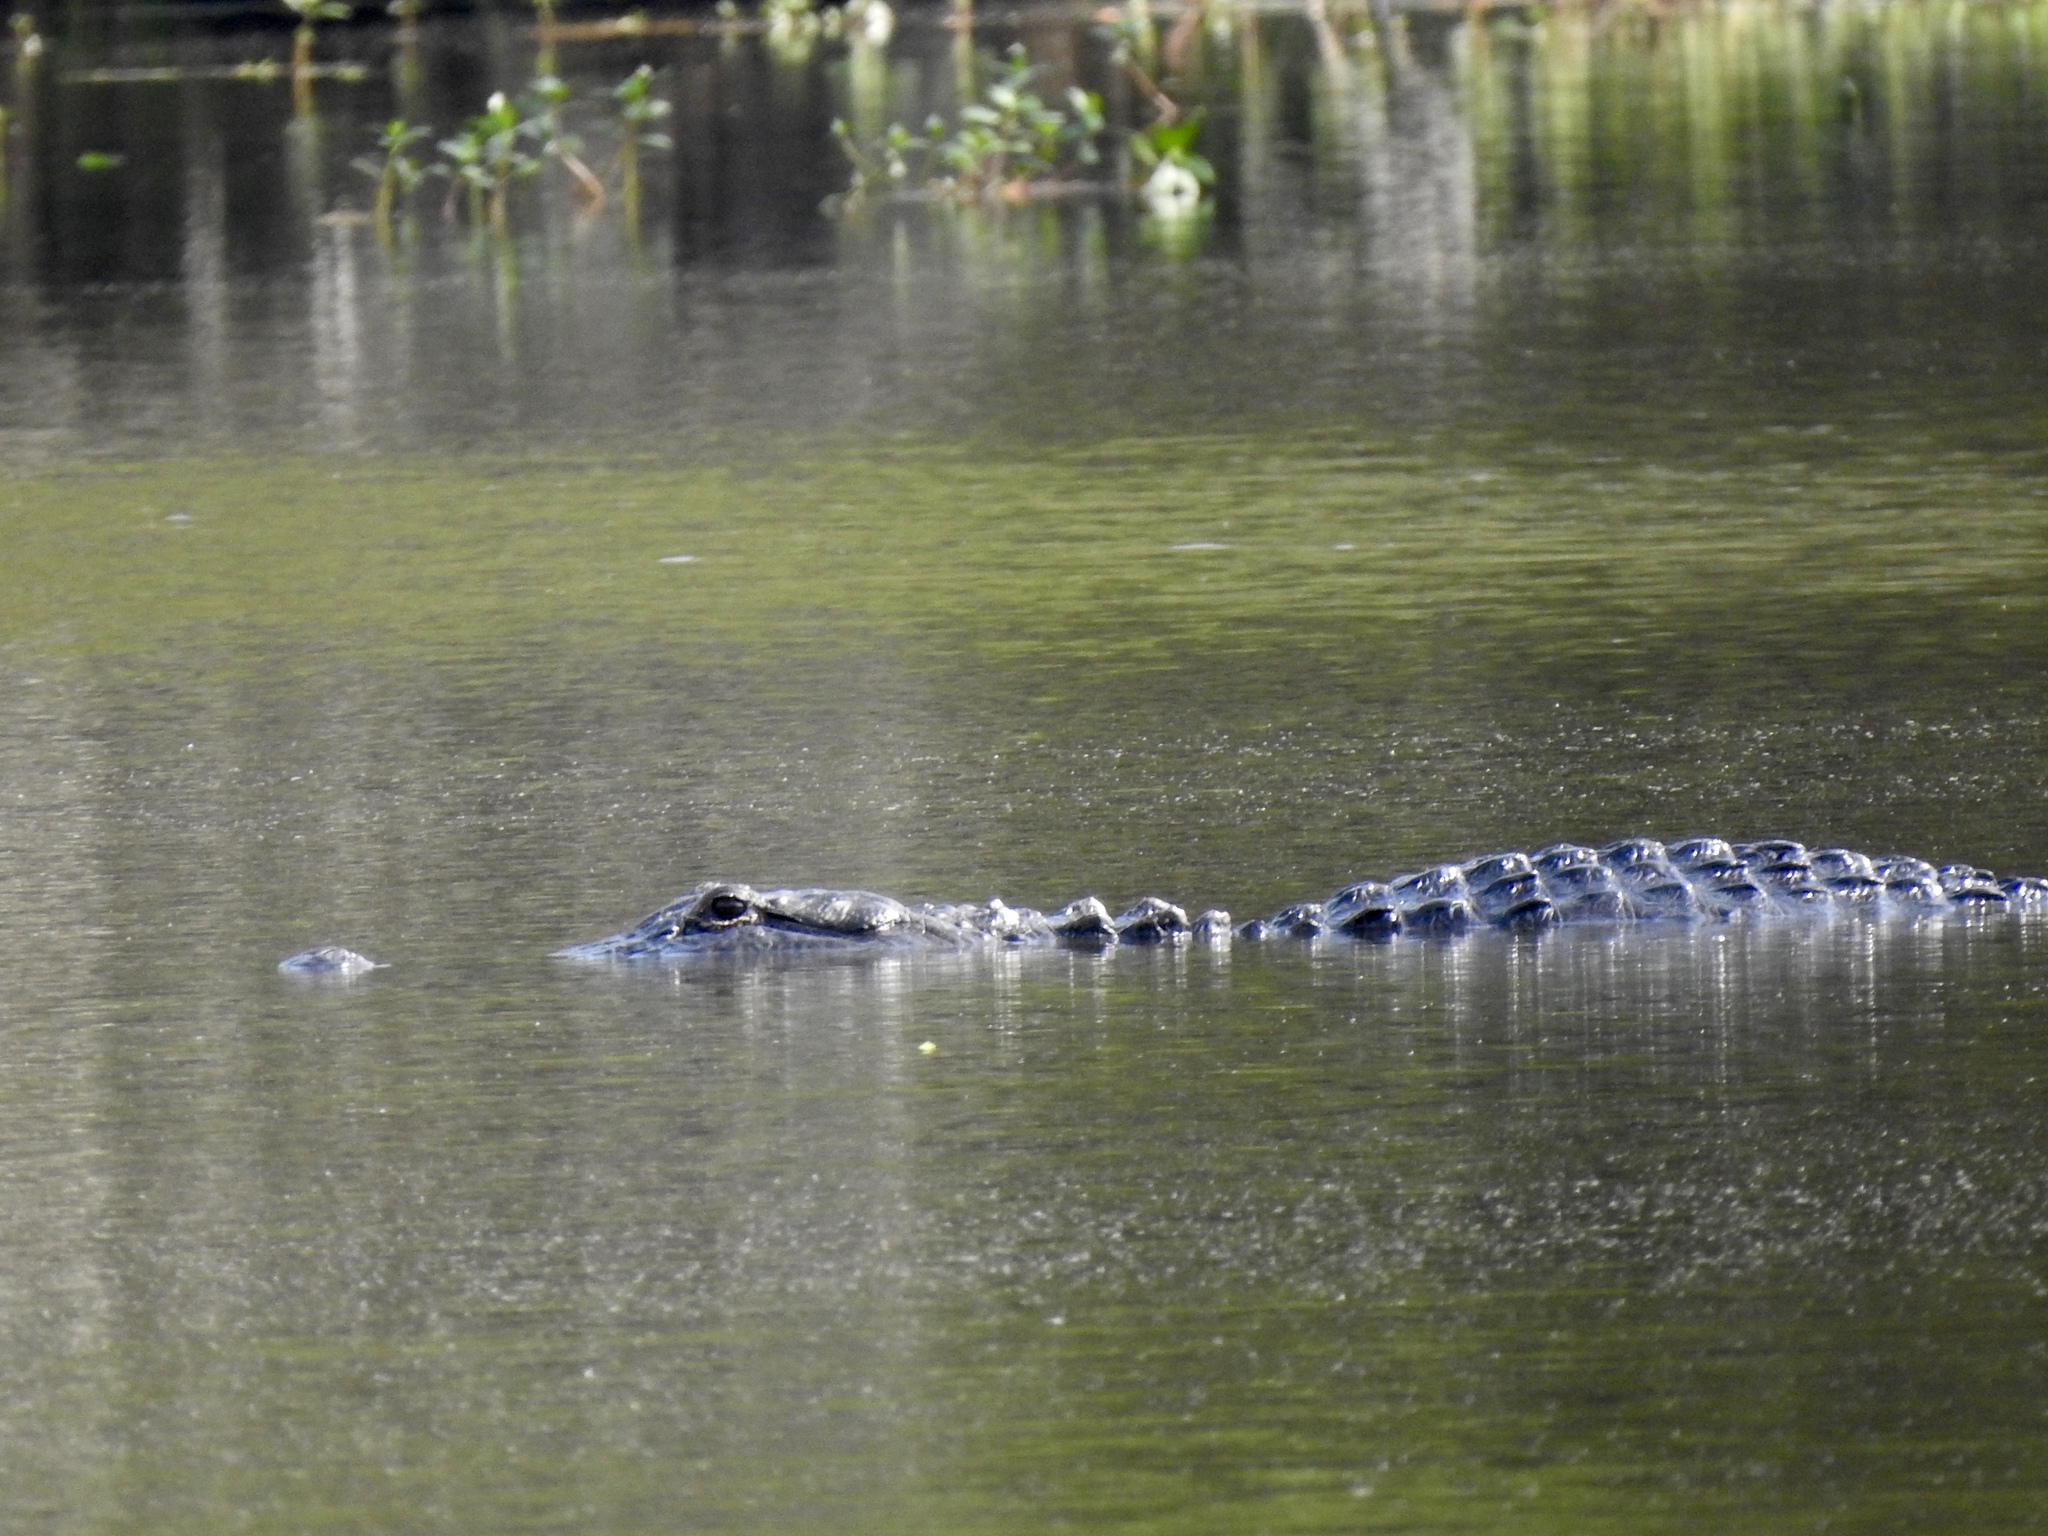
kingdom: Animalia
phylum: Chordata
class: Crocodylia
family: Alligatoridae
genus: Alligator
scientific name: Alligator mississippiensis
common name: American alligator
